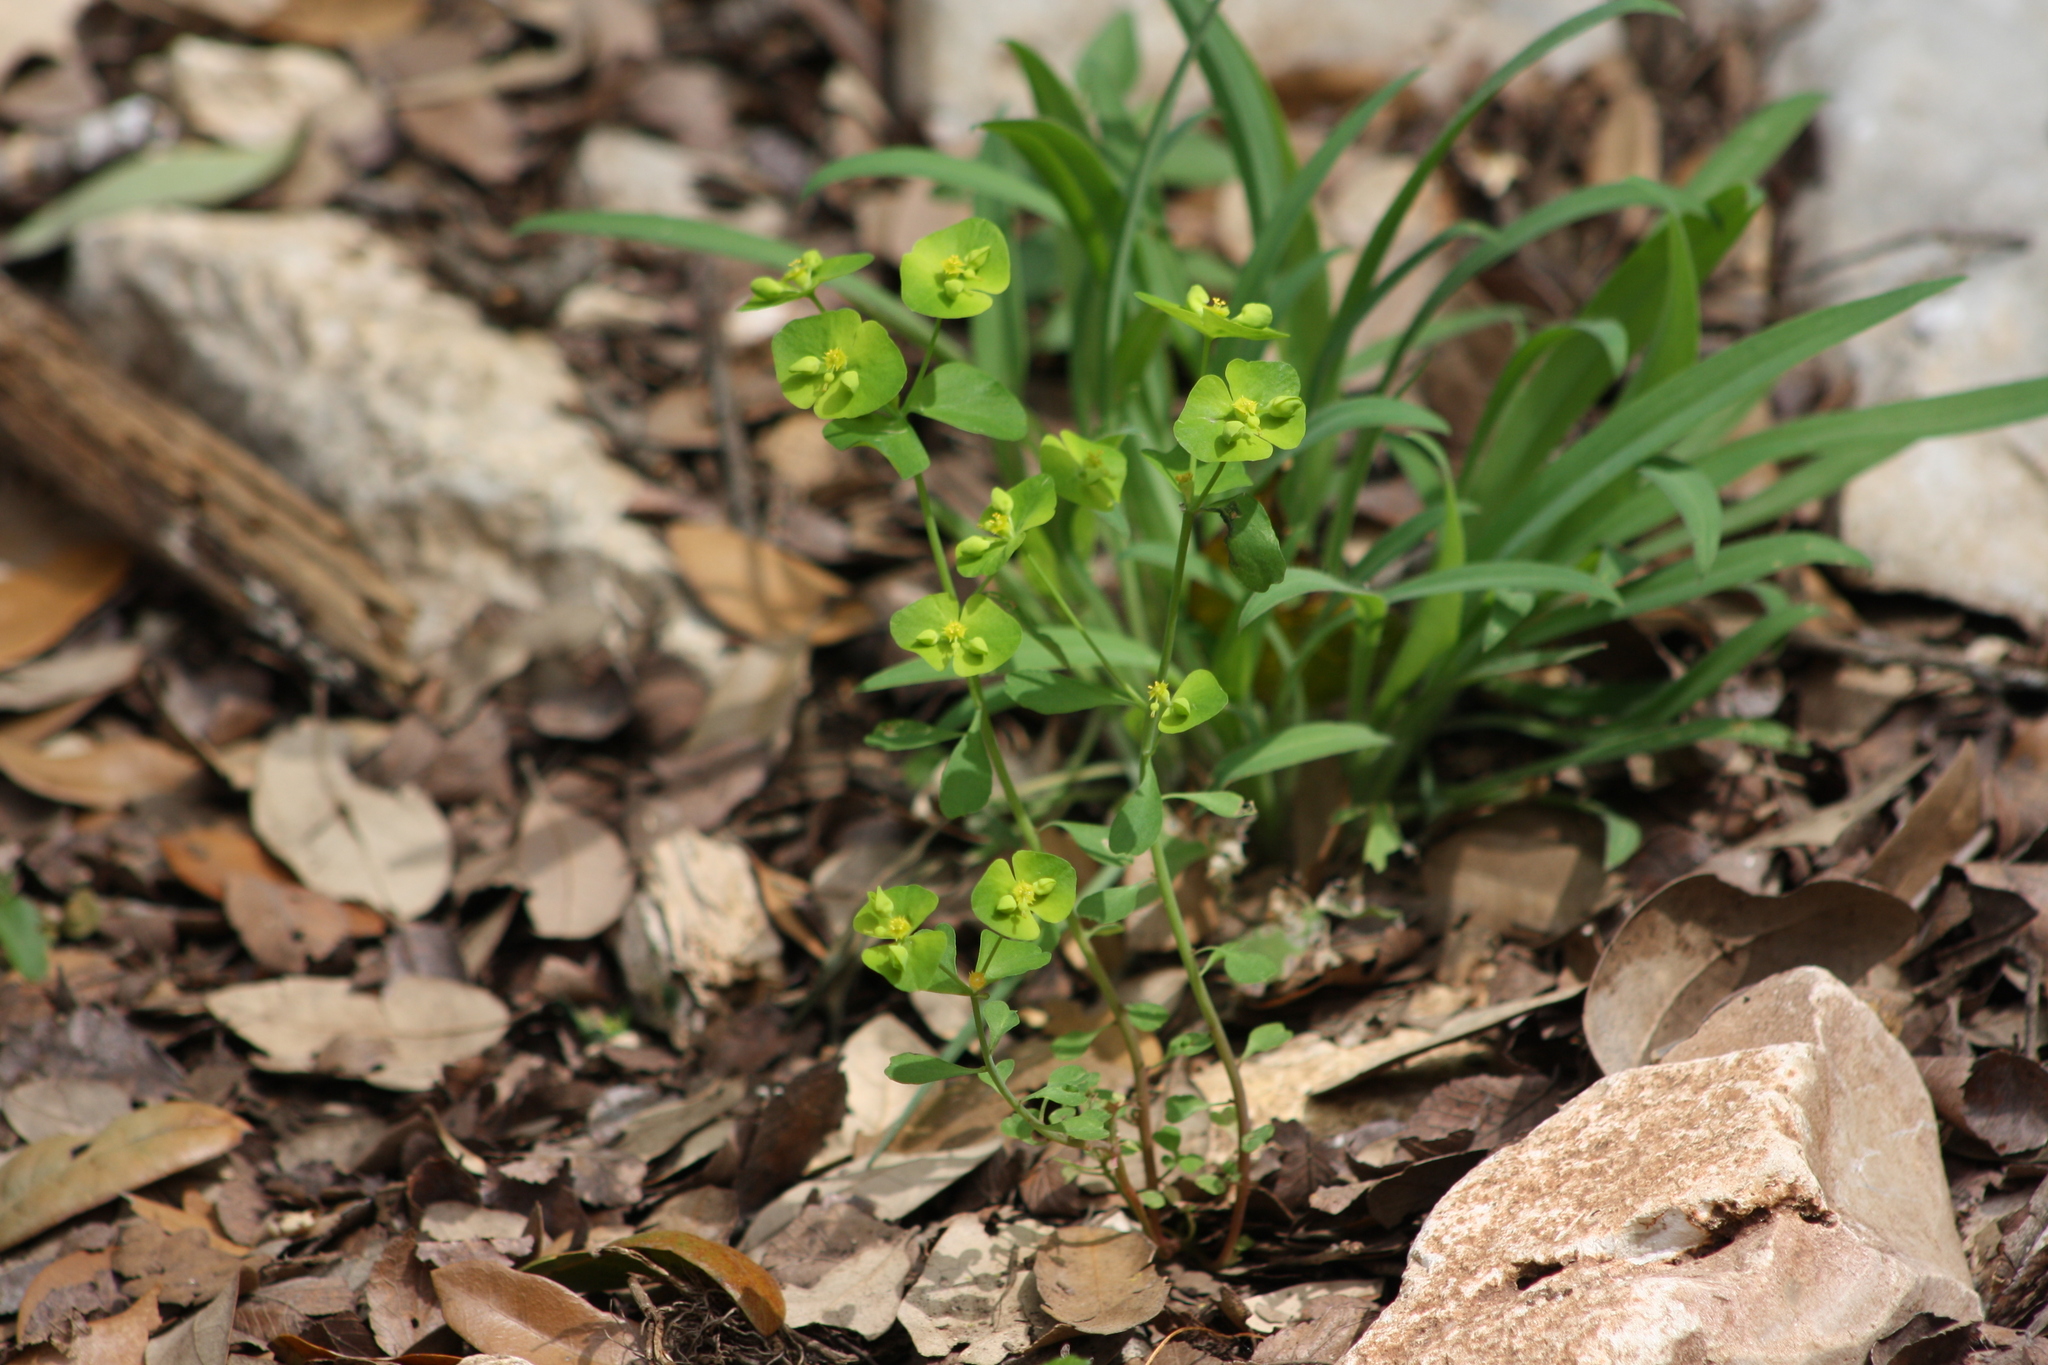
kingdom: Plantae
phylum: Tracheophyta
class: Magnoliopsida
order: Malpighiales
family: Euphorbiaceae
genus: Euphorbia
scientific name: Euphorbia roemeriana
